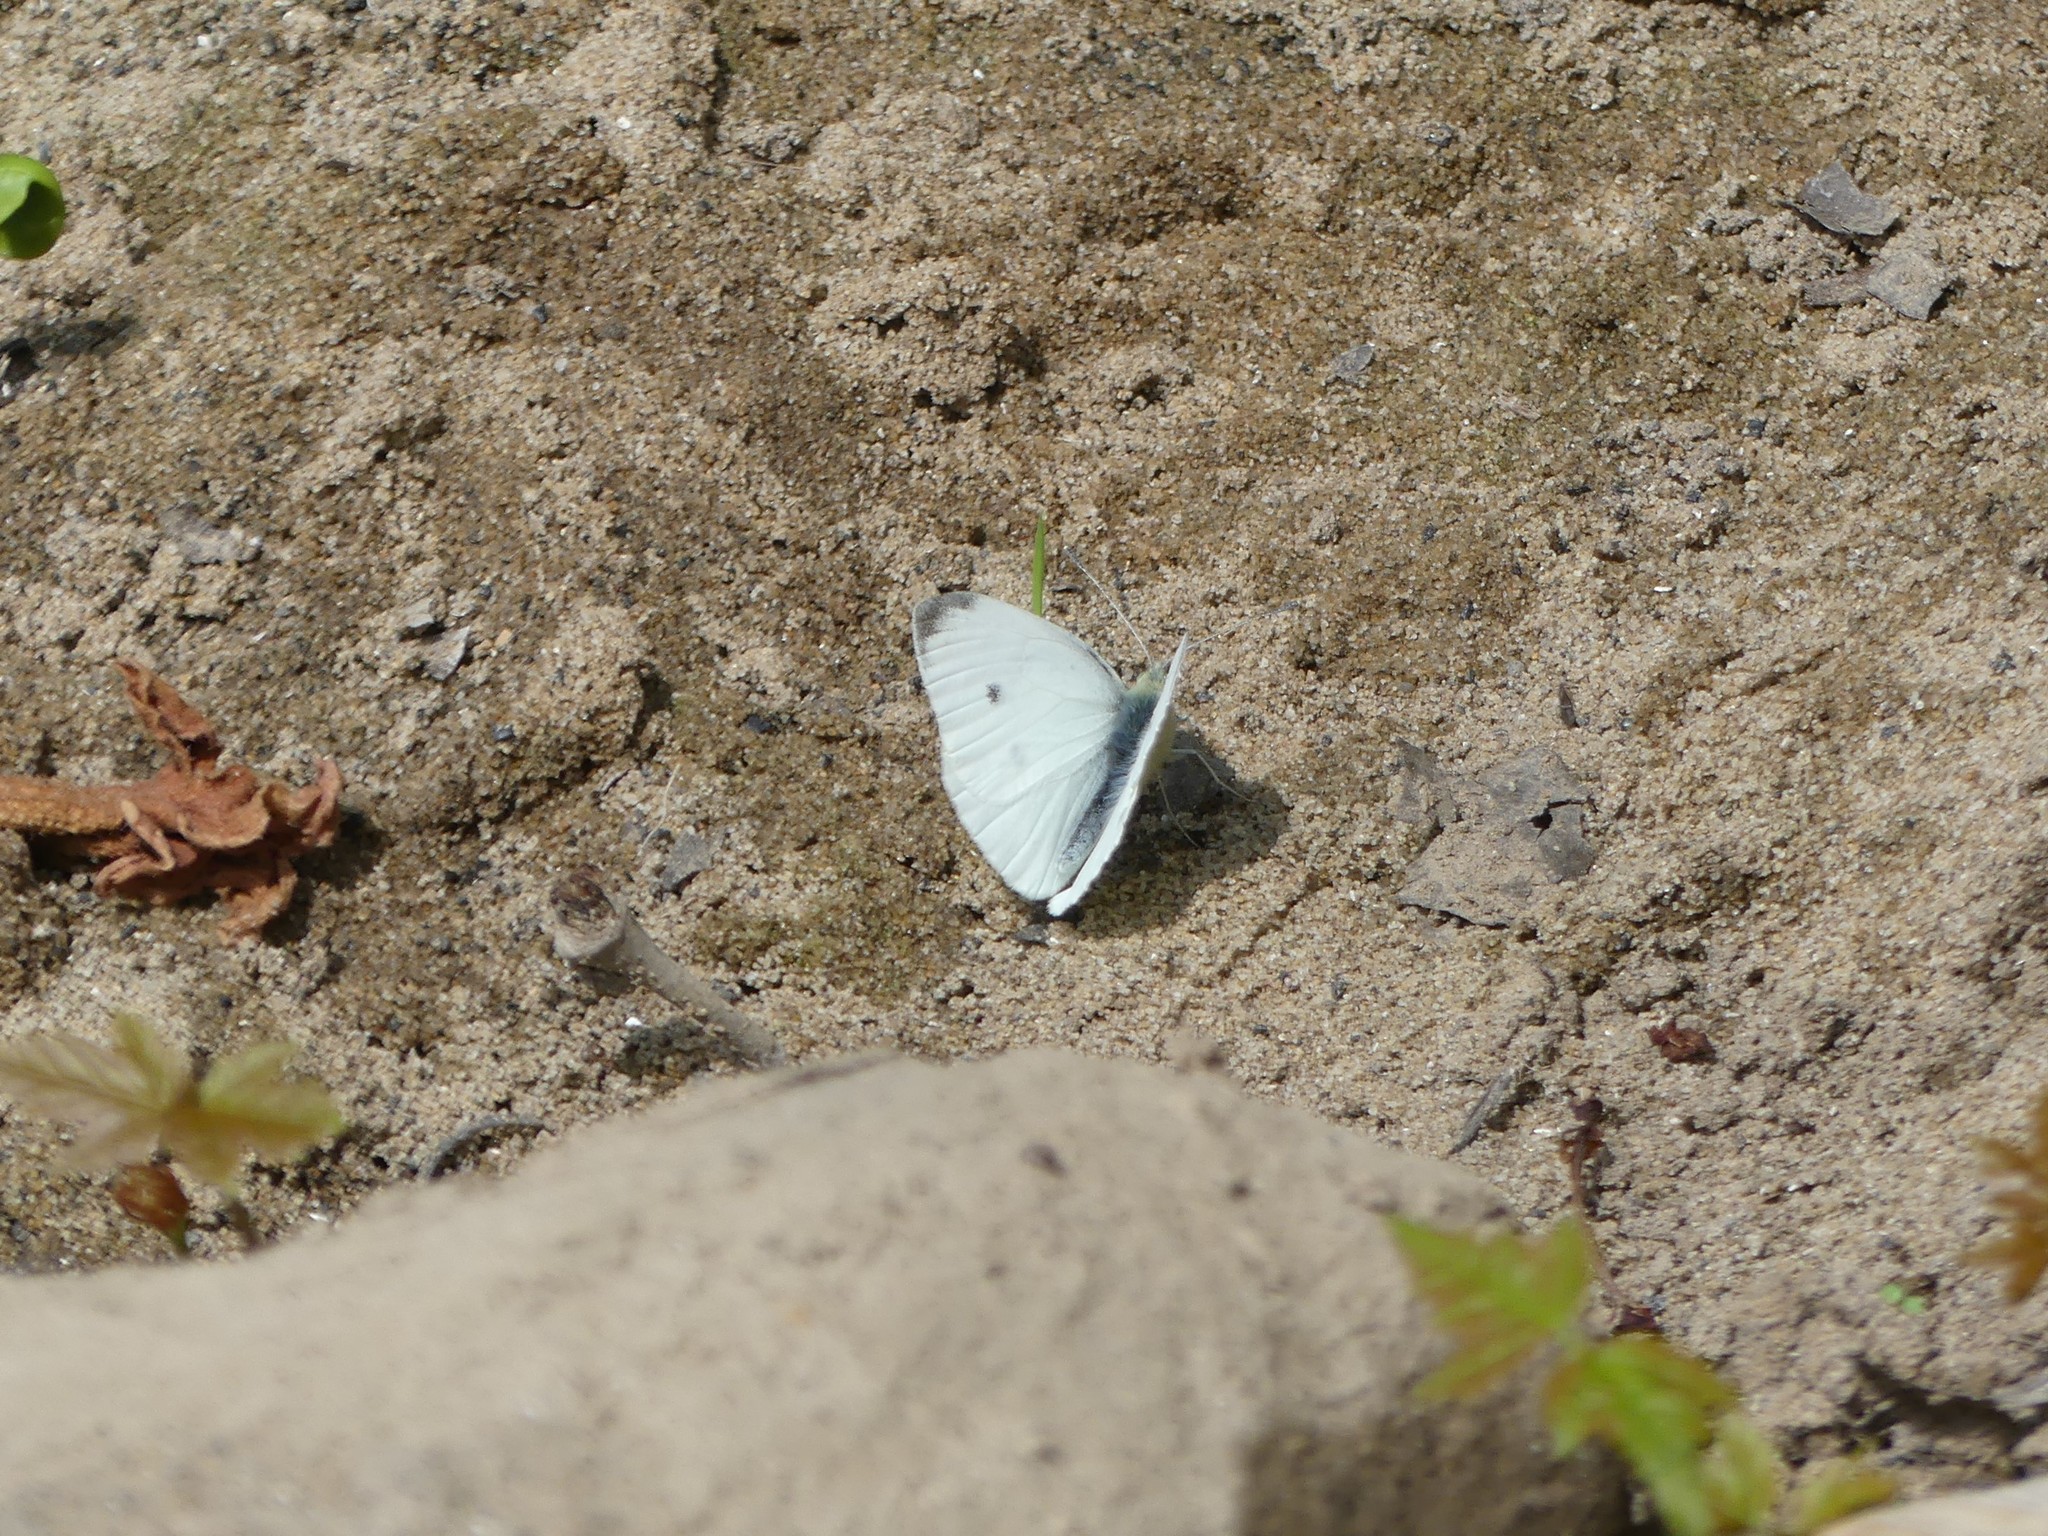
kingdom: Animalia
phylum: Arthropoda
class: Insecta
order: Lepidoptera
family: Pieridae
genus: Pieris
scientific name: Pieris rapae
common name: Small white
